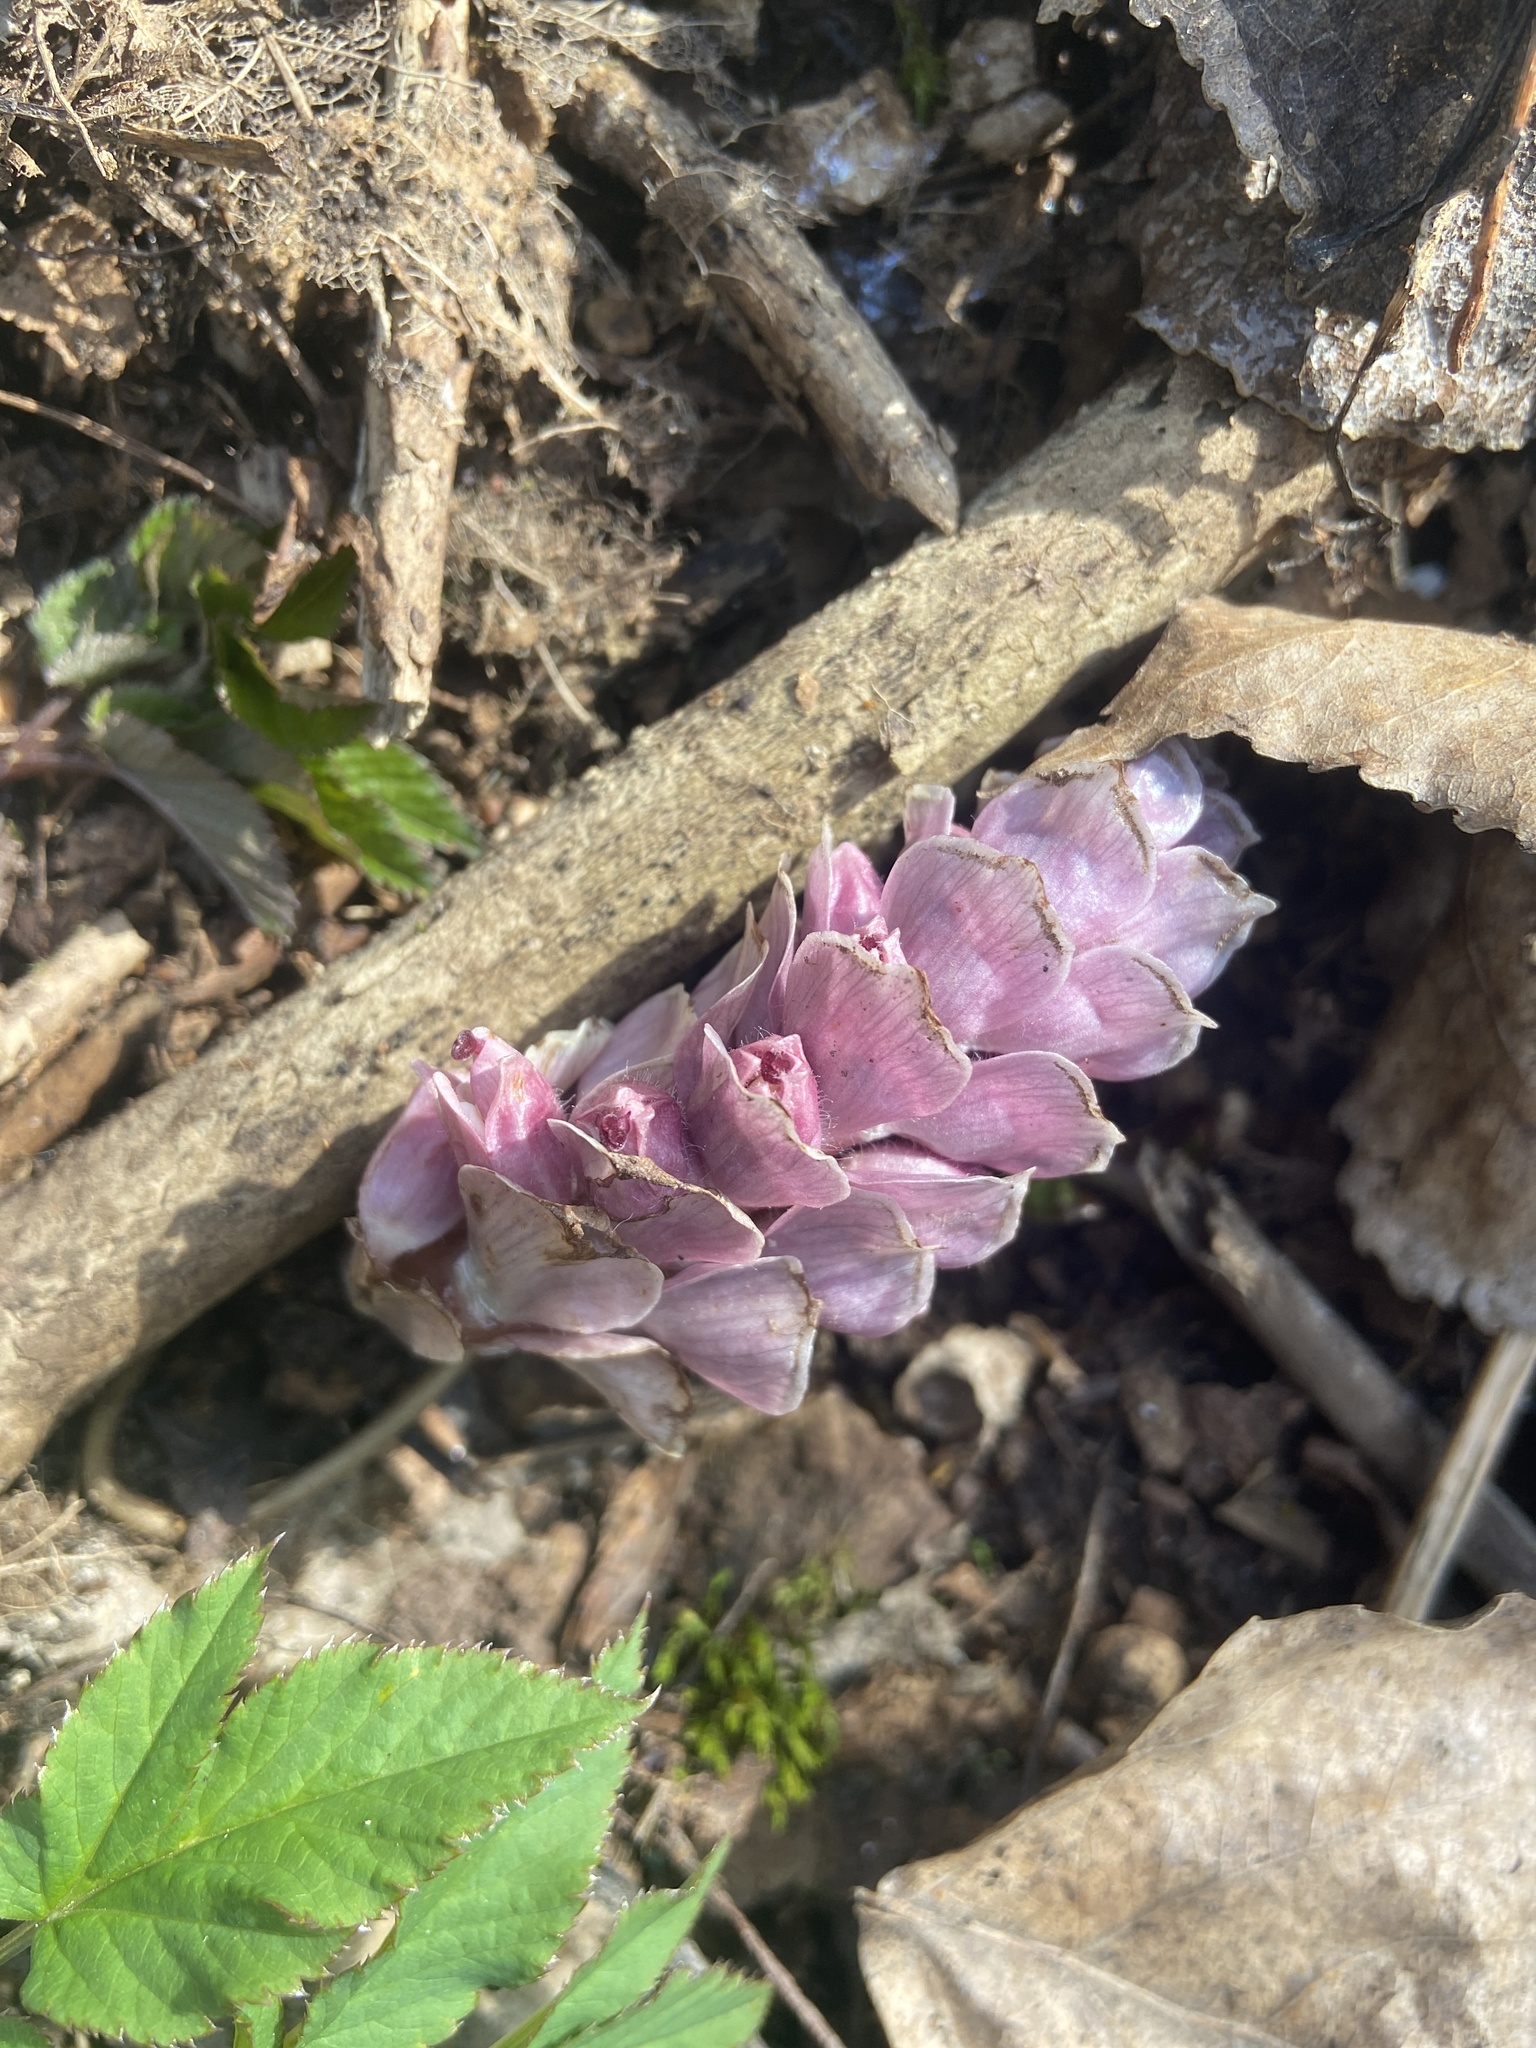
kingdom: Plantae
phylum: Tracheophyta
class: Magnoliopsida
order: Lamiales
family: Orobanchaceae
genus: Lathraea
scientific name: Lathraea squamaria
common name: Toothwort
